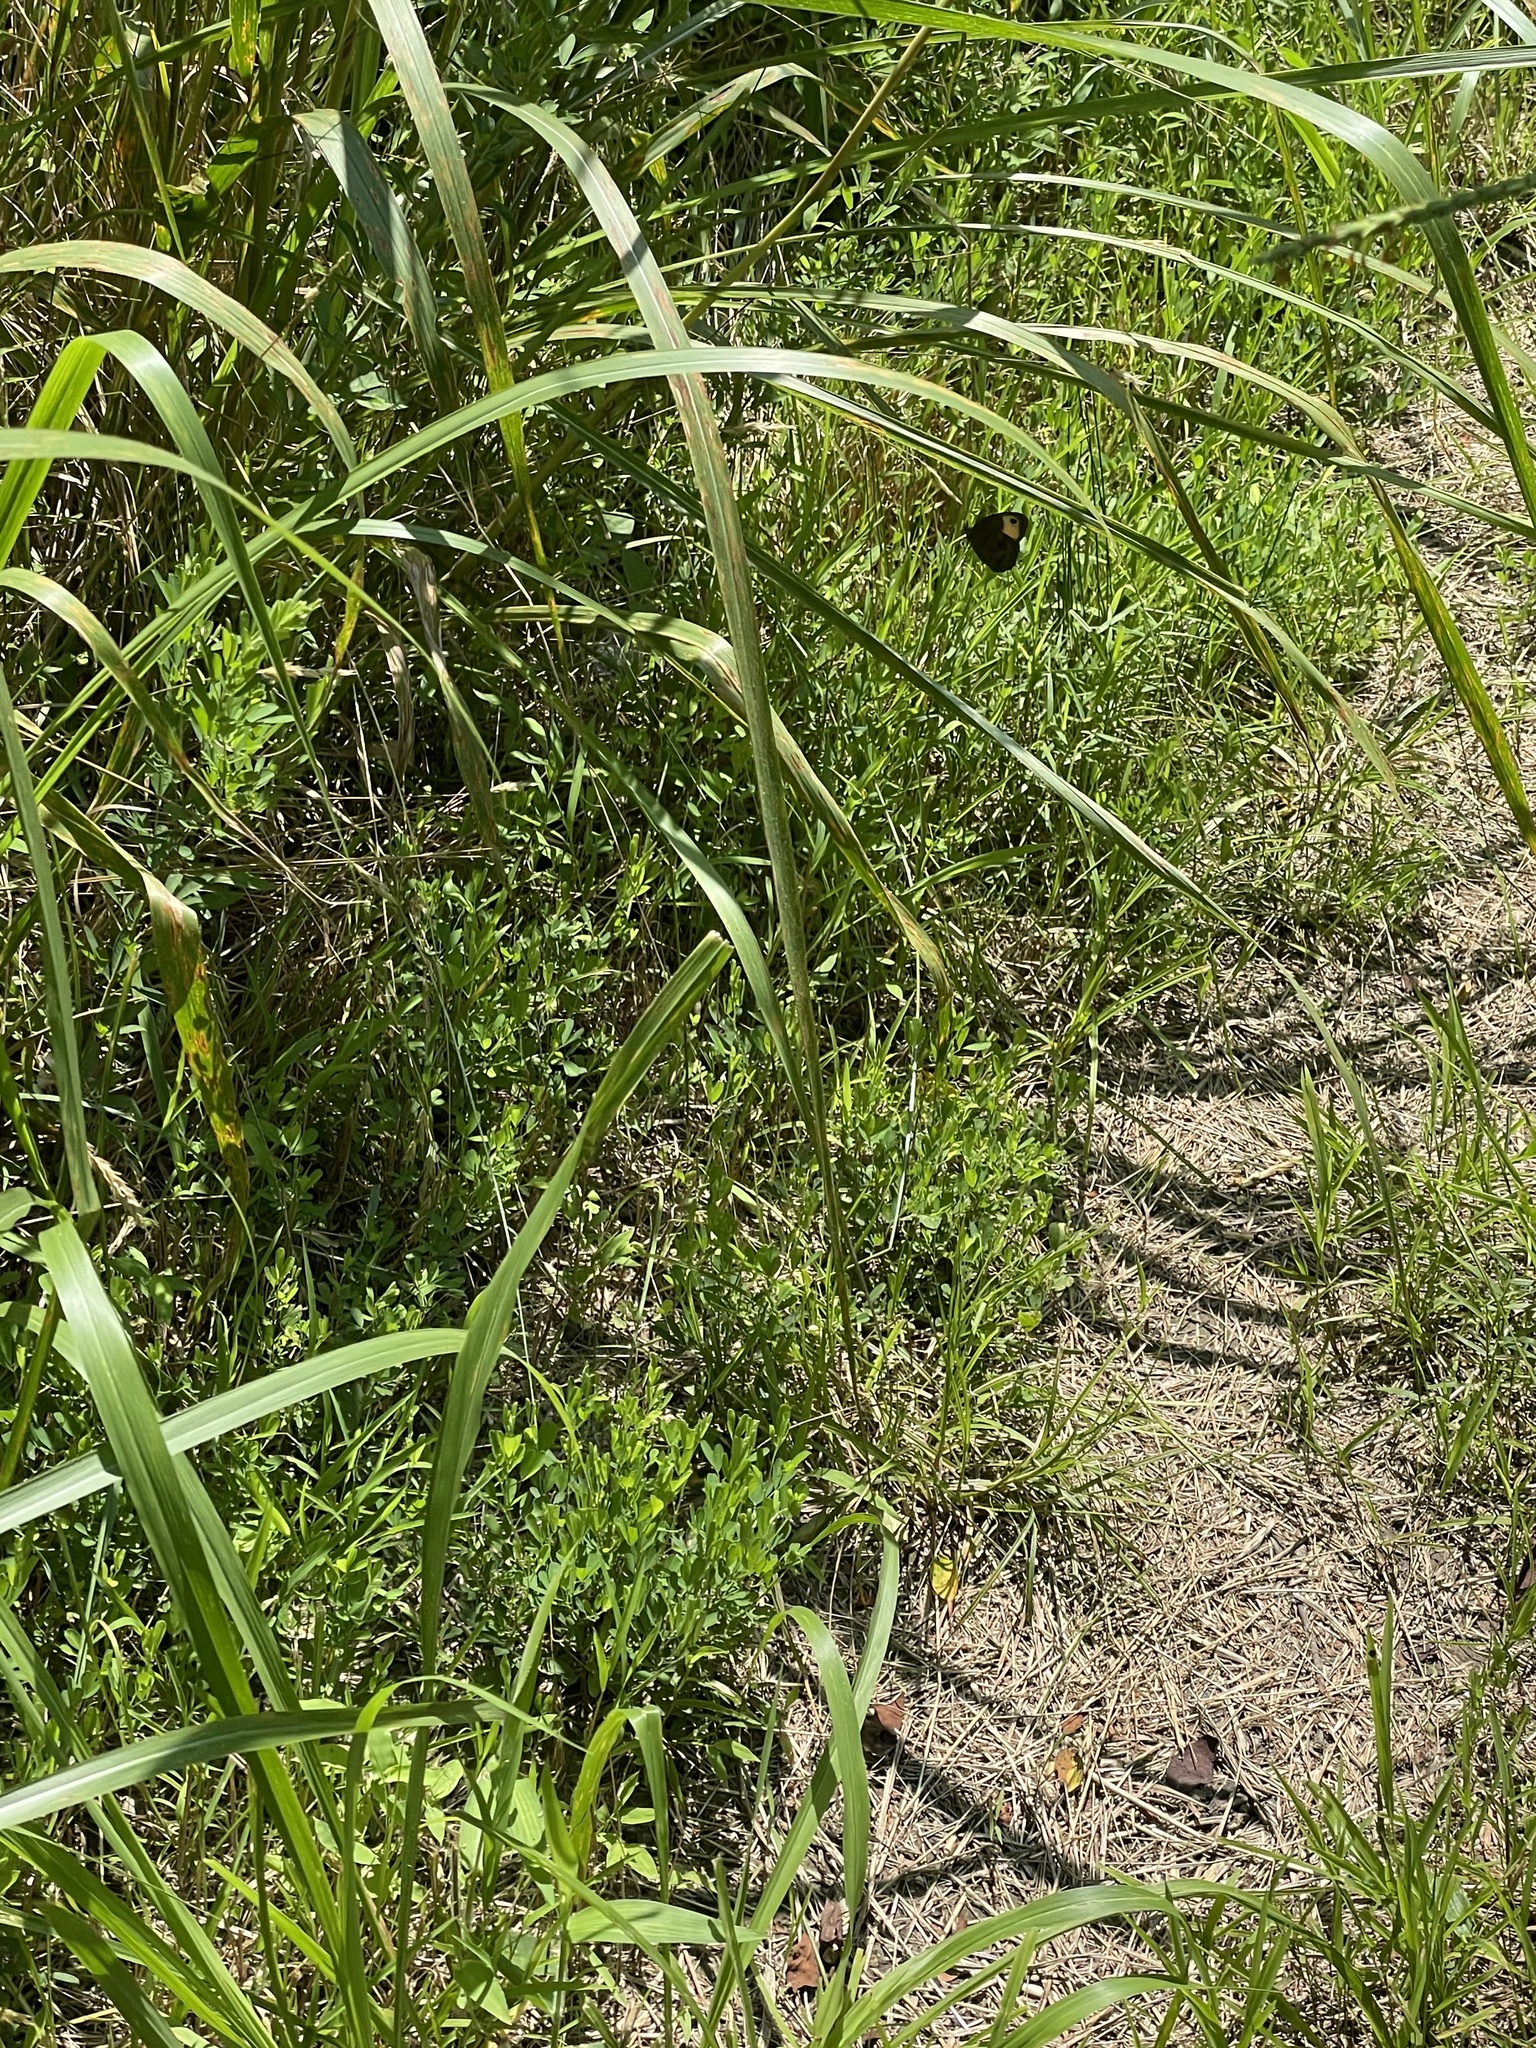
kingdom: Animalia
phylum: Arthropoda
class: Insecta
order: Lepidoptera
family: Nymphalidae
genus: Cercyonis
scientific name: Cercyonis pegala
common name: Common wood-nymph
